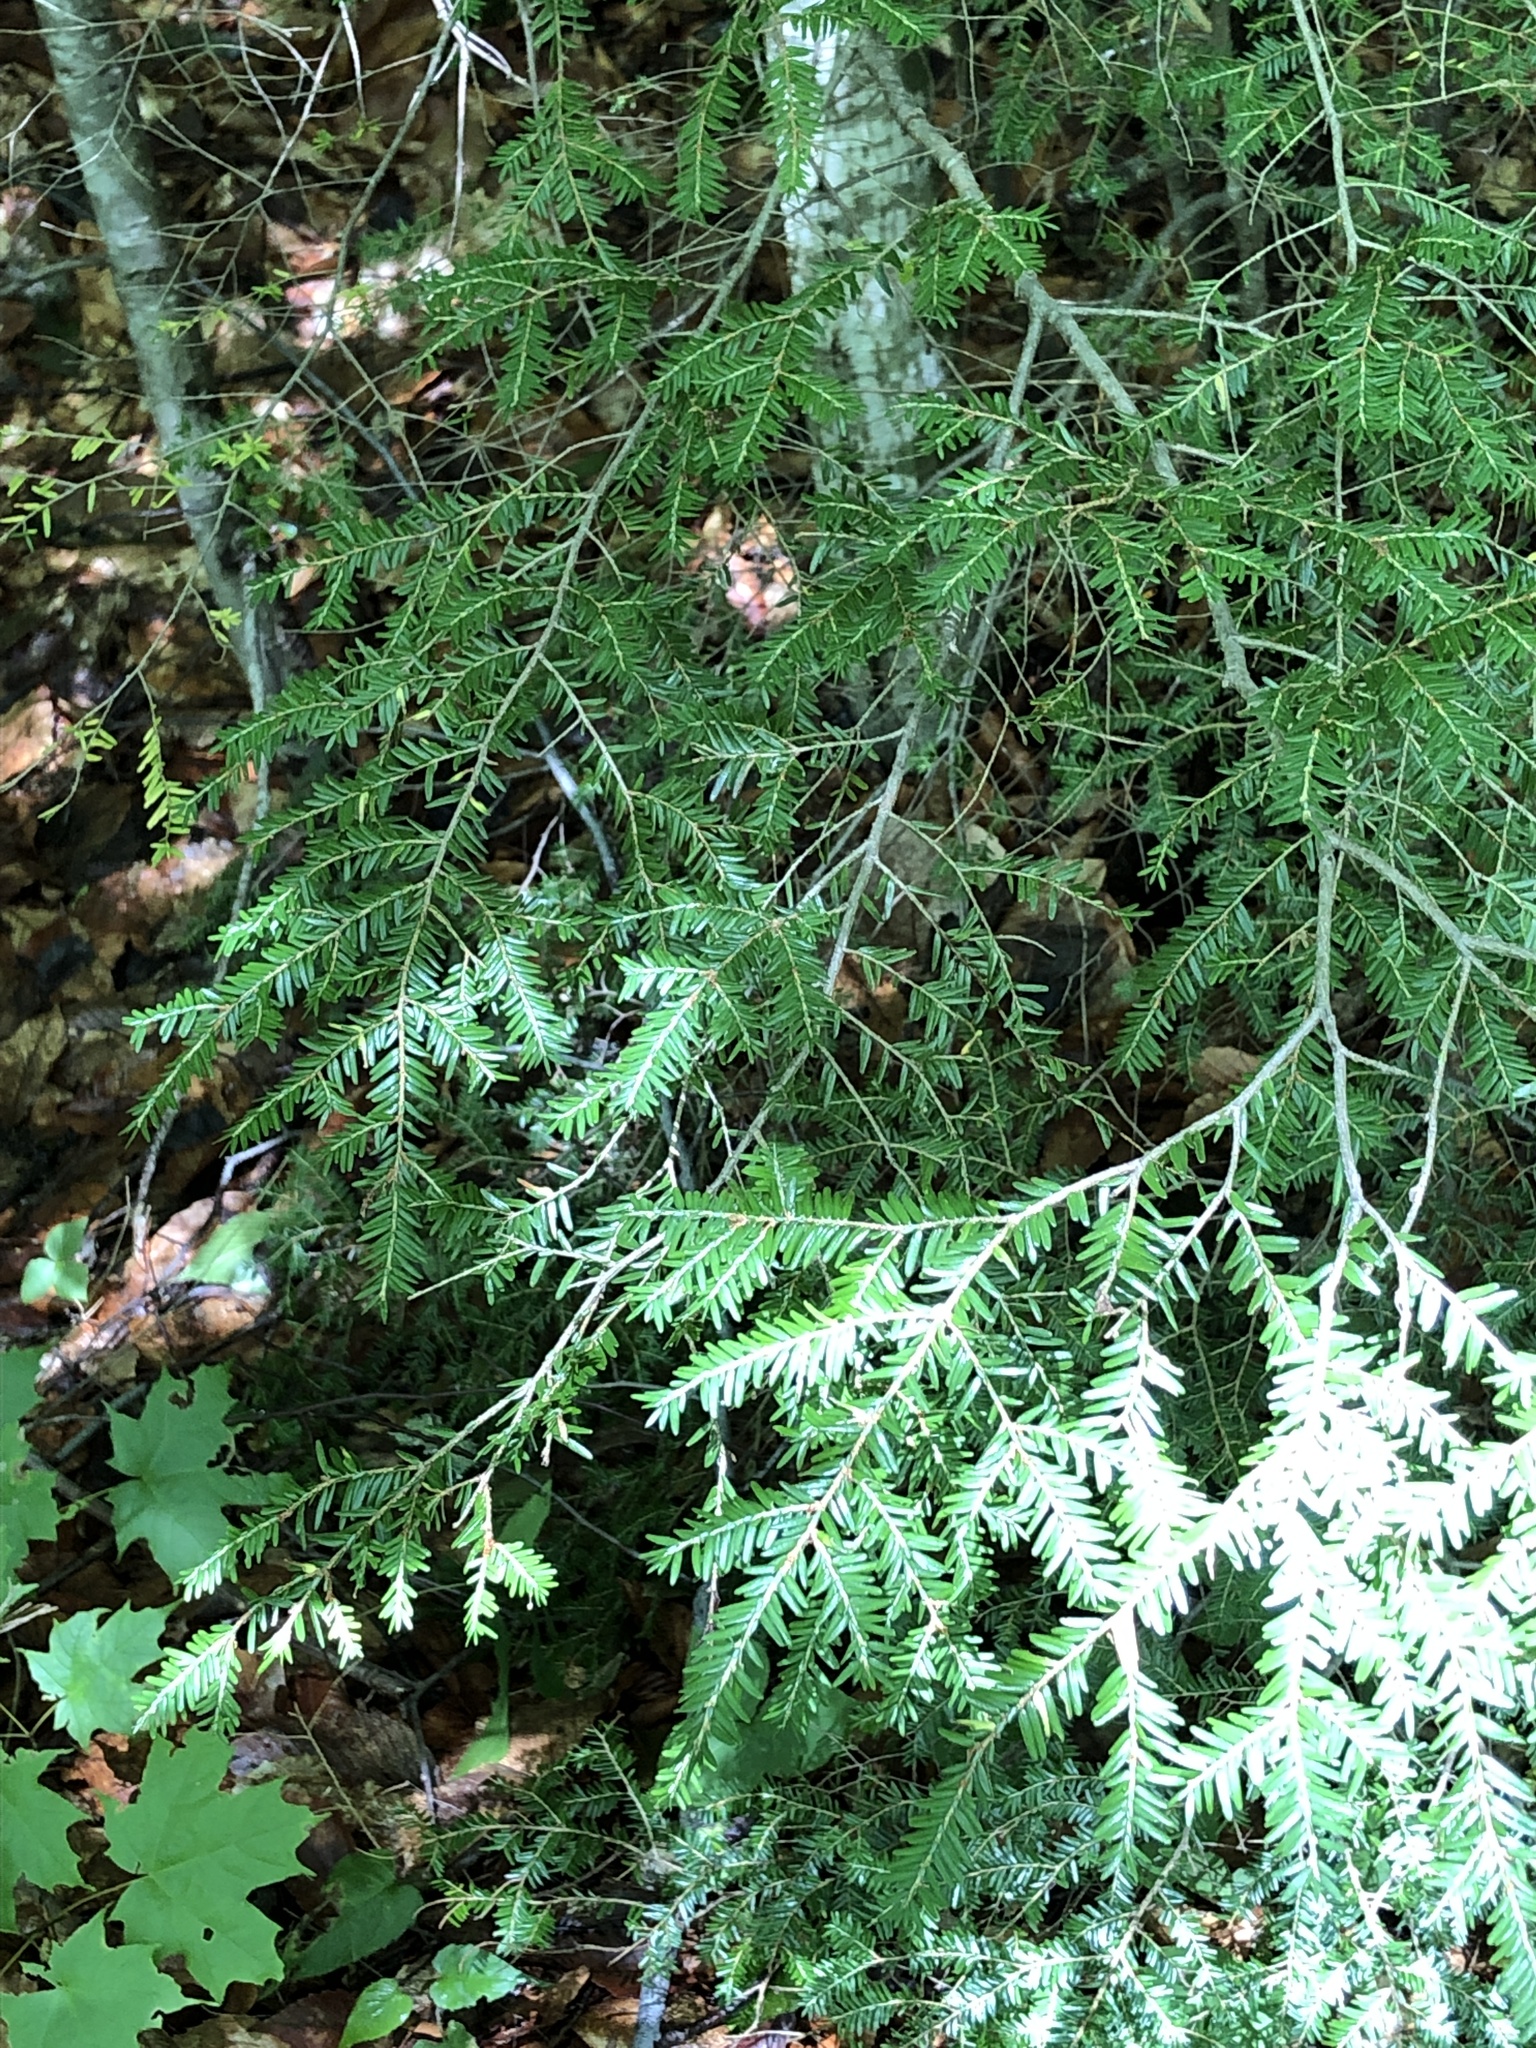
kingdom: Plantae
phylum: Tracheophyta
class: Pinopsida
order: Pinales
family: Pinaceae
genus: Tsuga
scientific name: Tsuga canadensis
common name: Eastern hemlock
